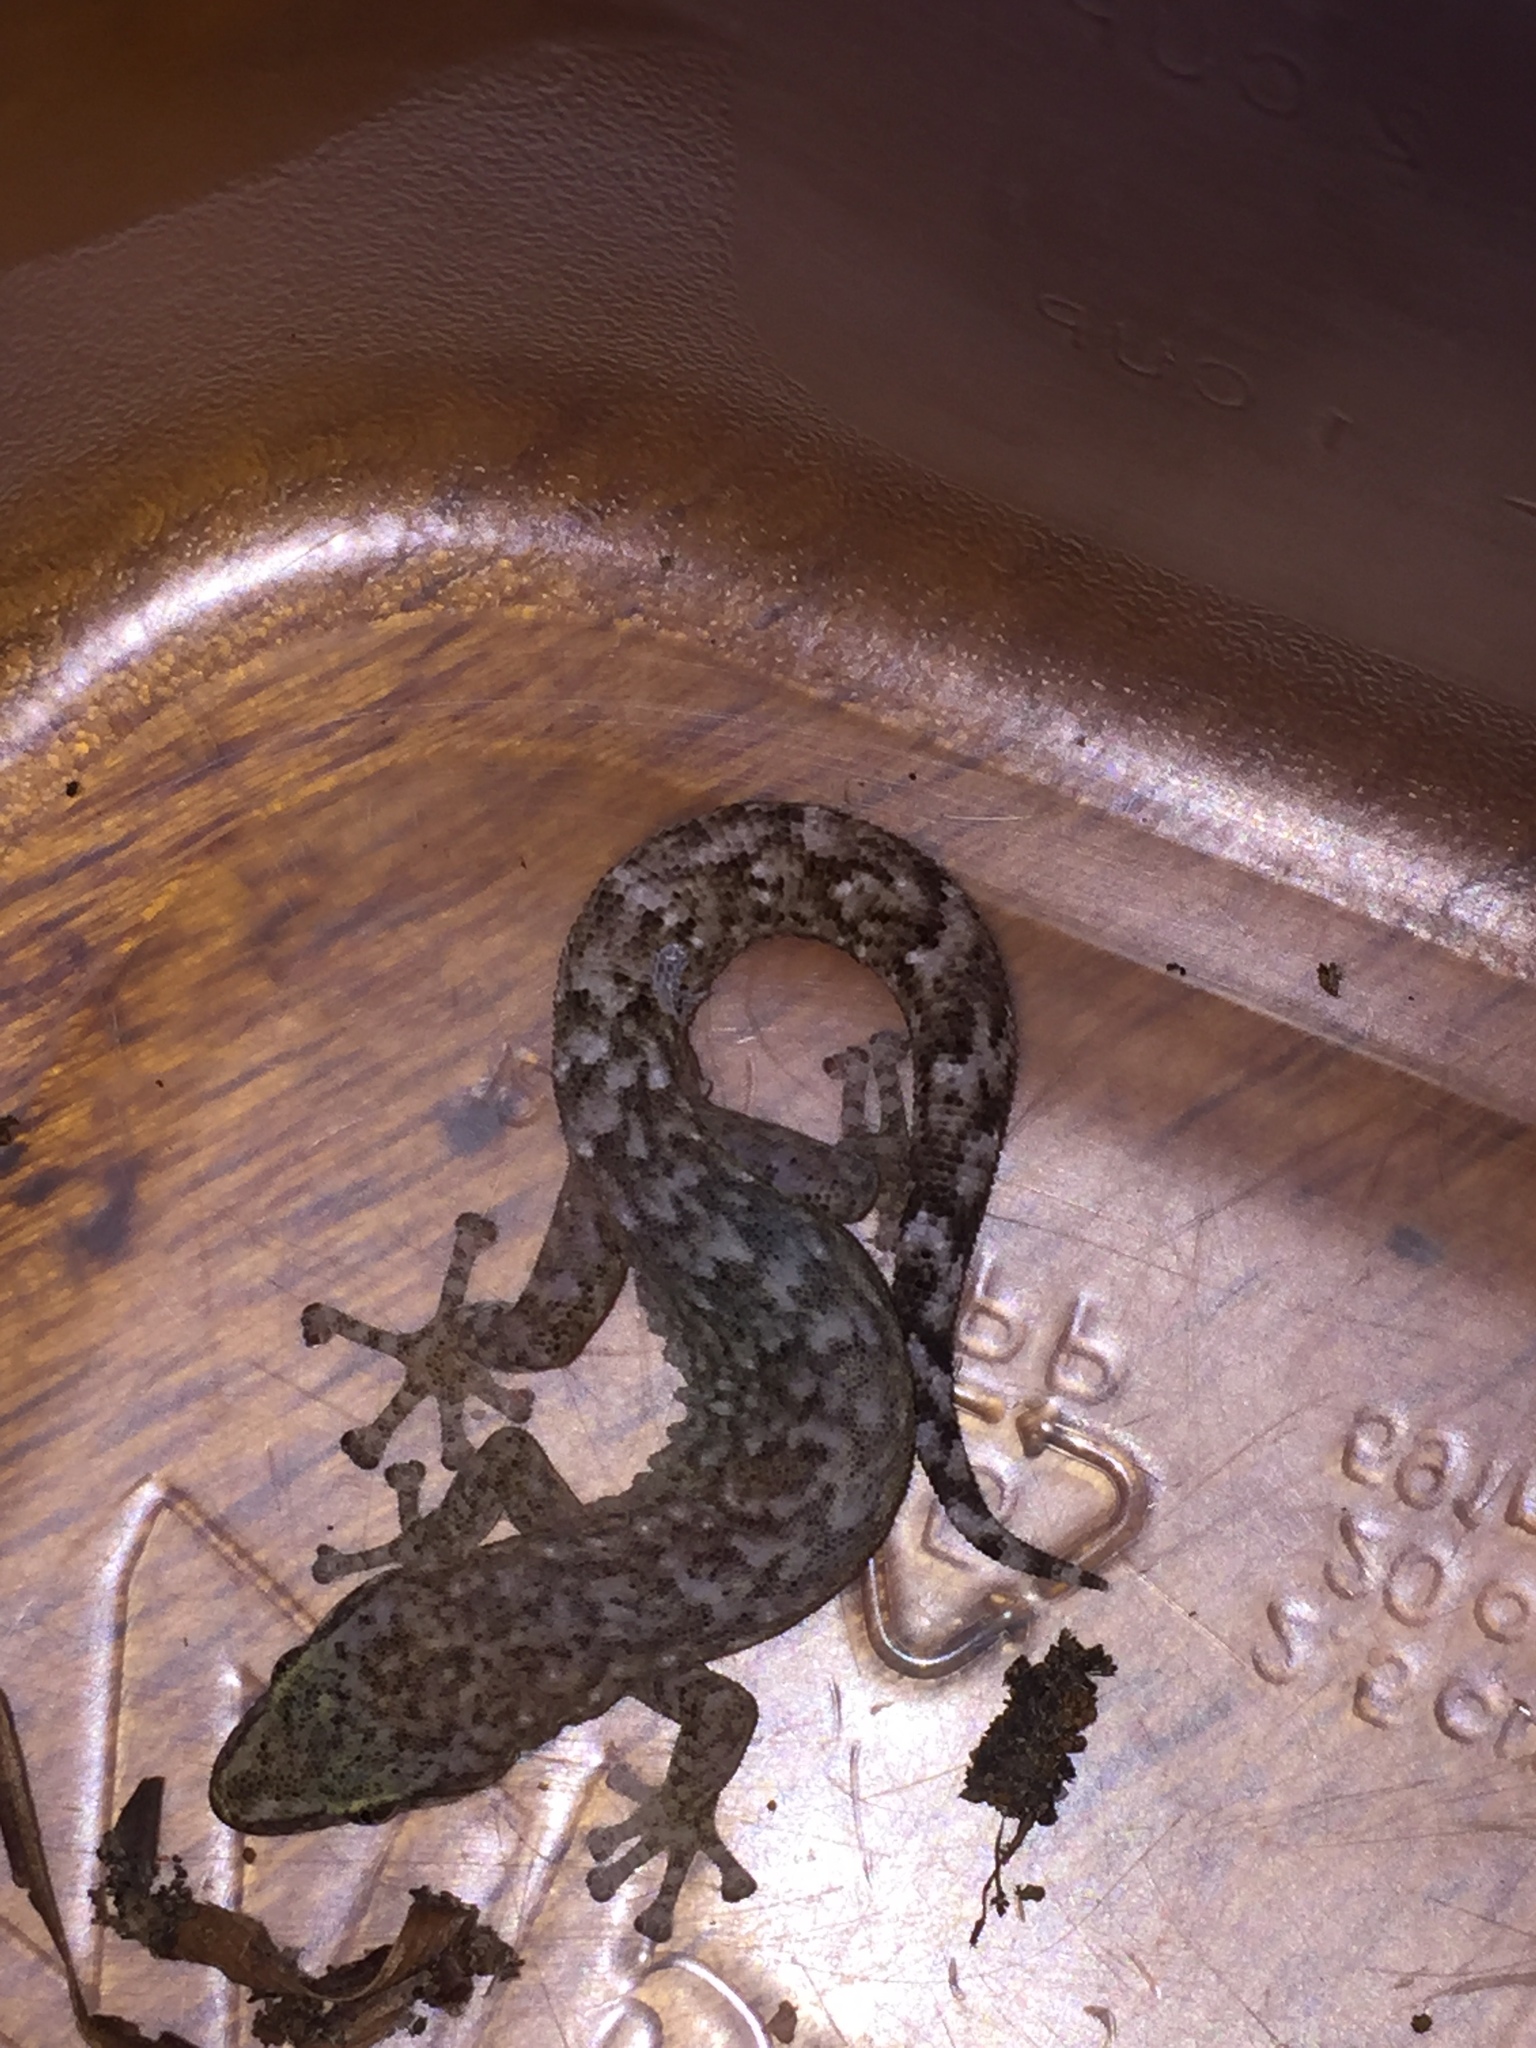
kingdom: Animalia
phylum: Chordata
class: Squamata
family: Gekkonidae
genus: Afrogecko
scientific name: Afrogecko porphyreus
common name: Marbled leaf-toed gecko
